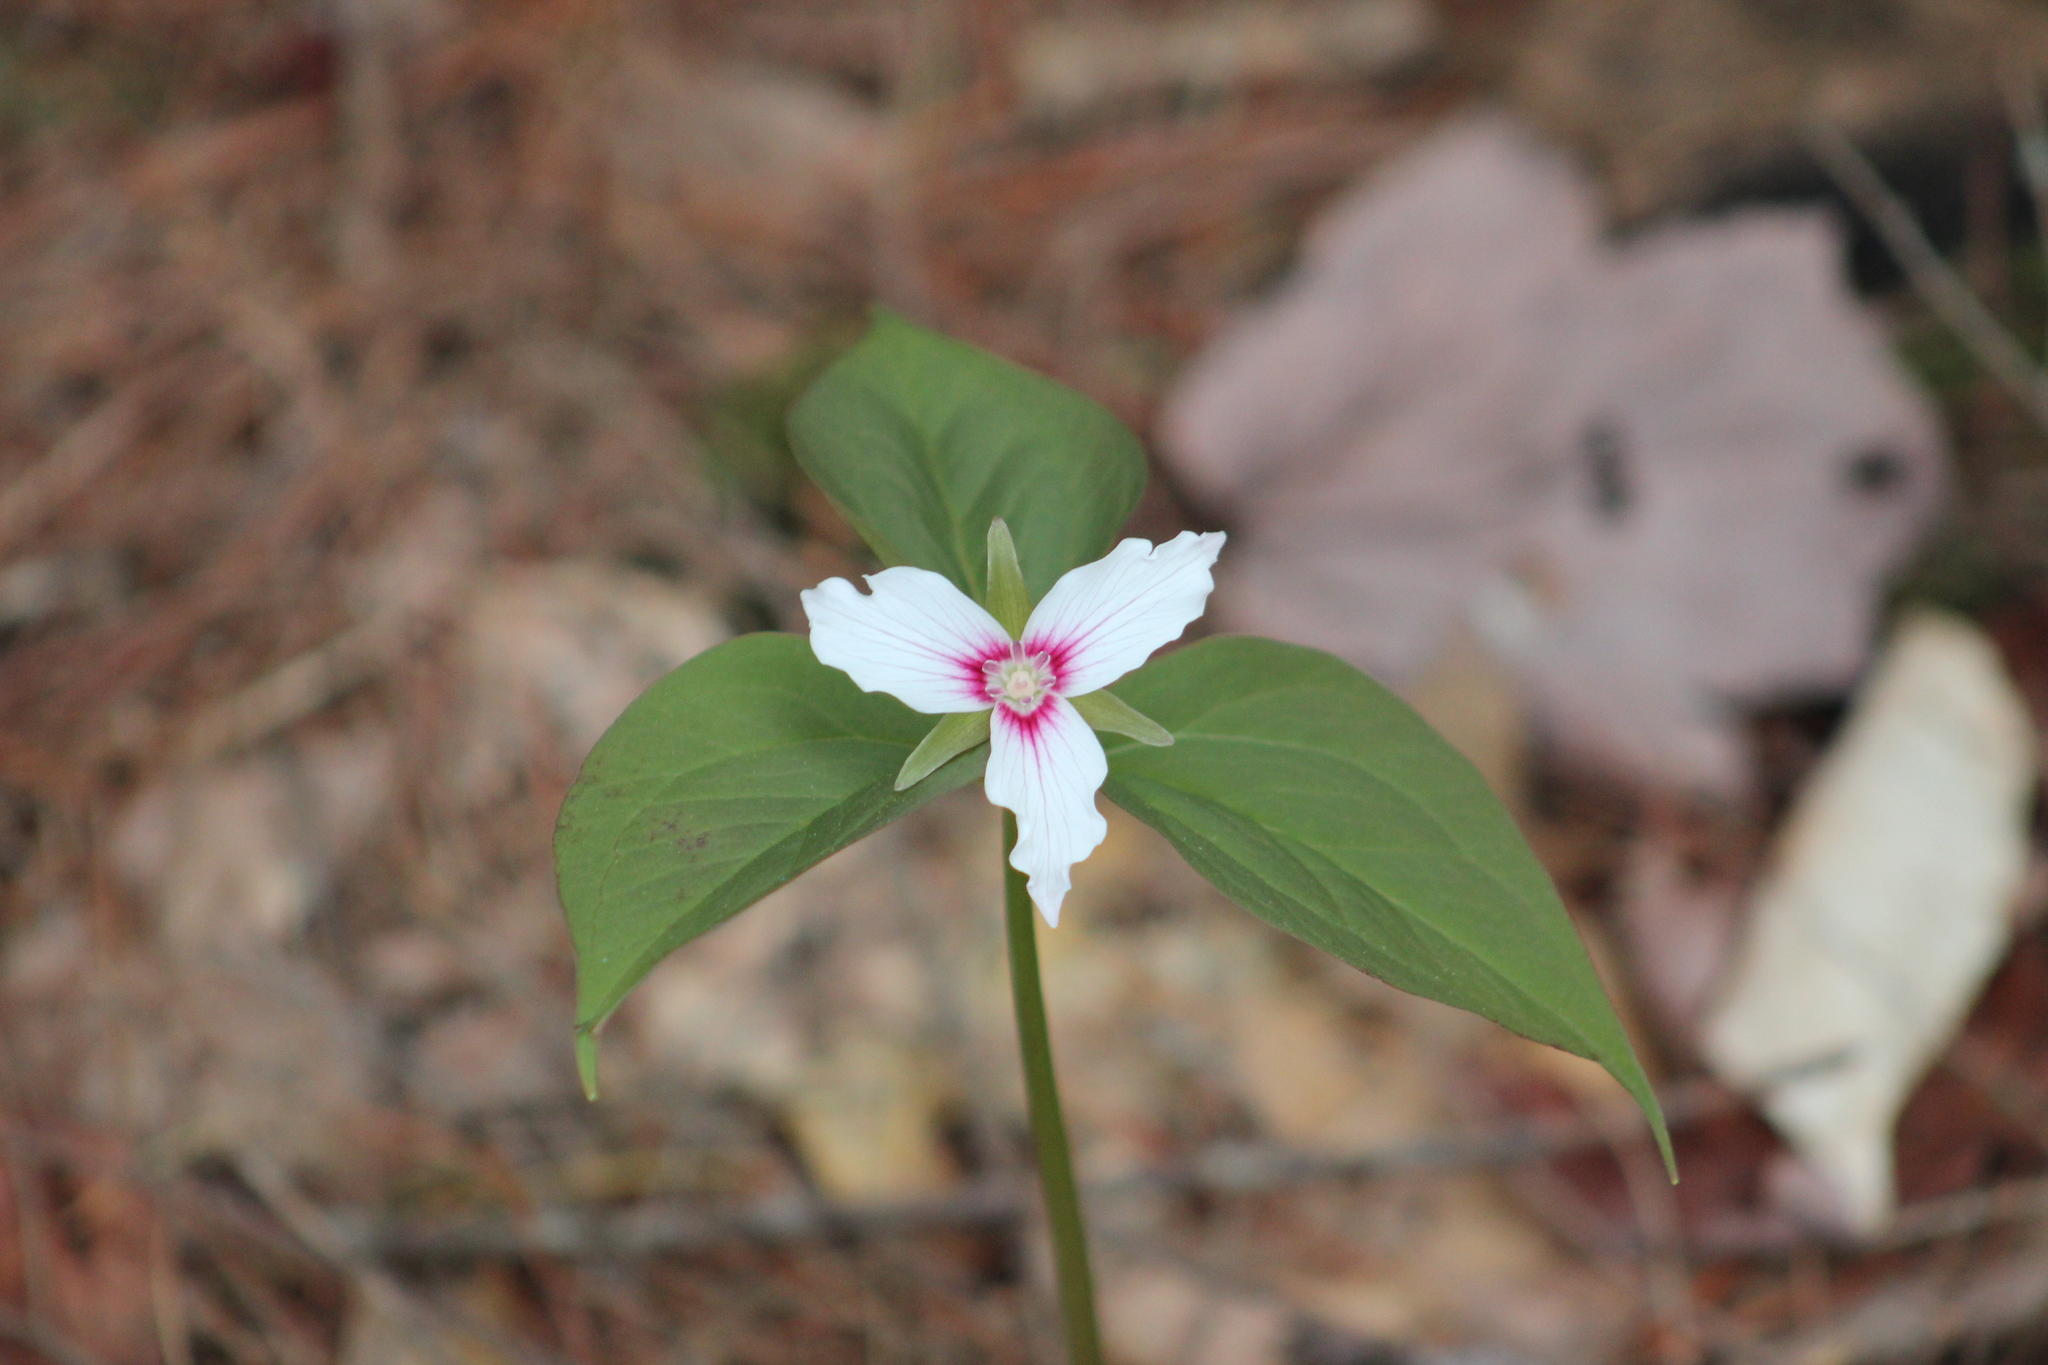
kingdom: Plantae
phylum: Tracheophyta
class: Liliopsida
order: Liliales
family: Melanthiaceae
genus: Trillium
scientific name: Trillium undulatum
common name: Paint trillium
